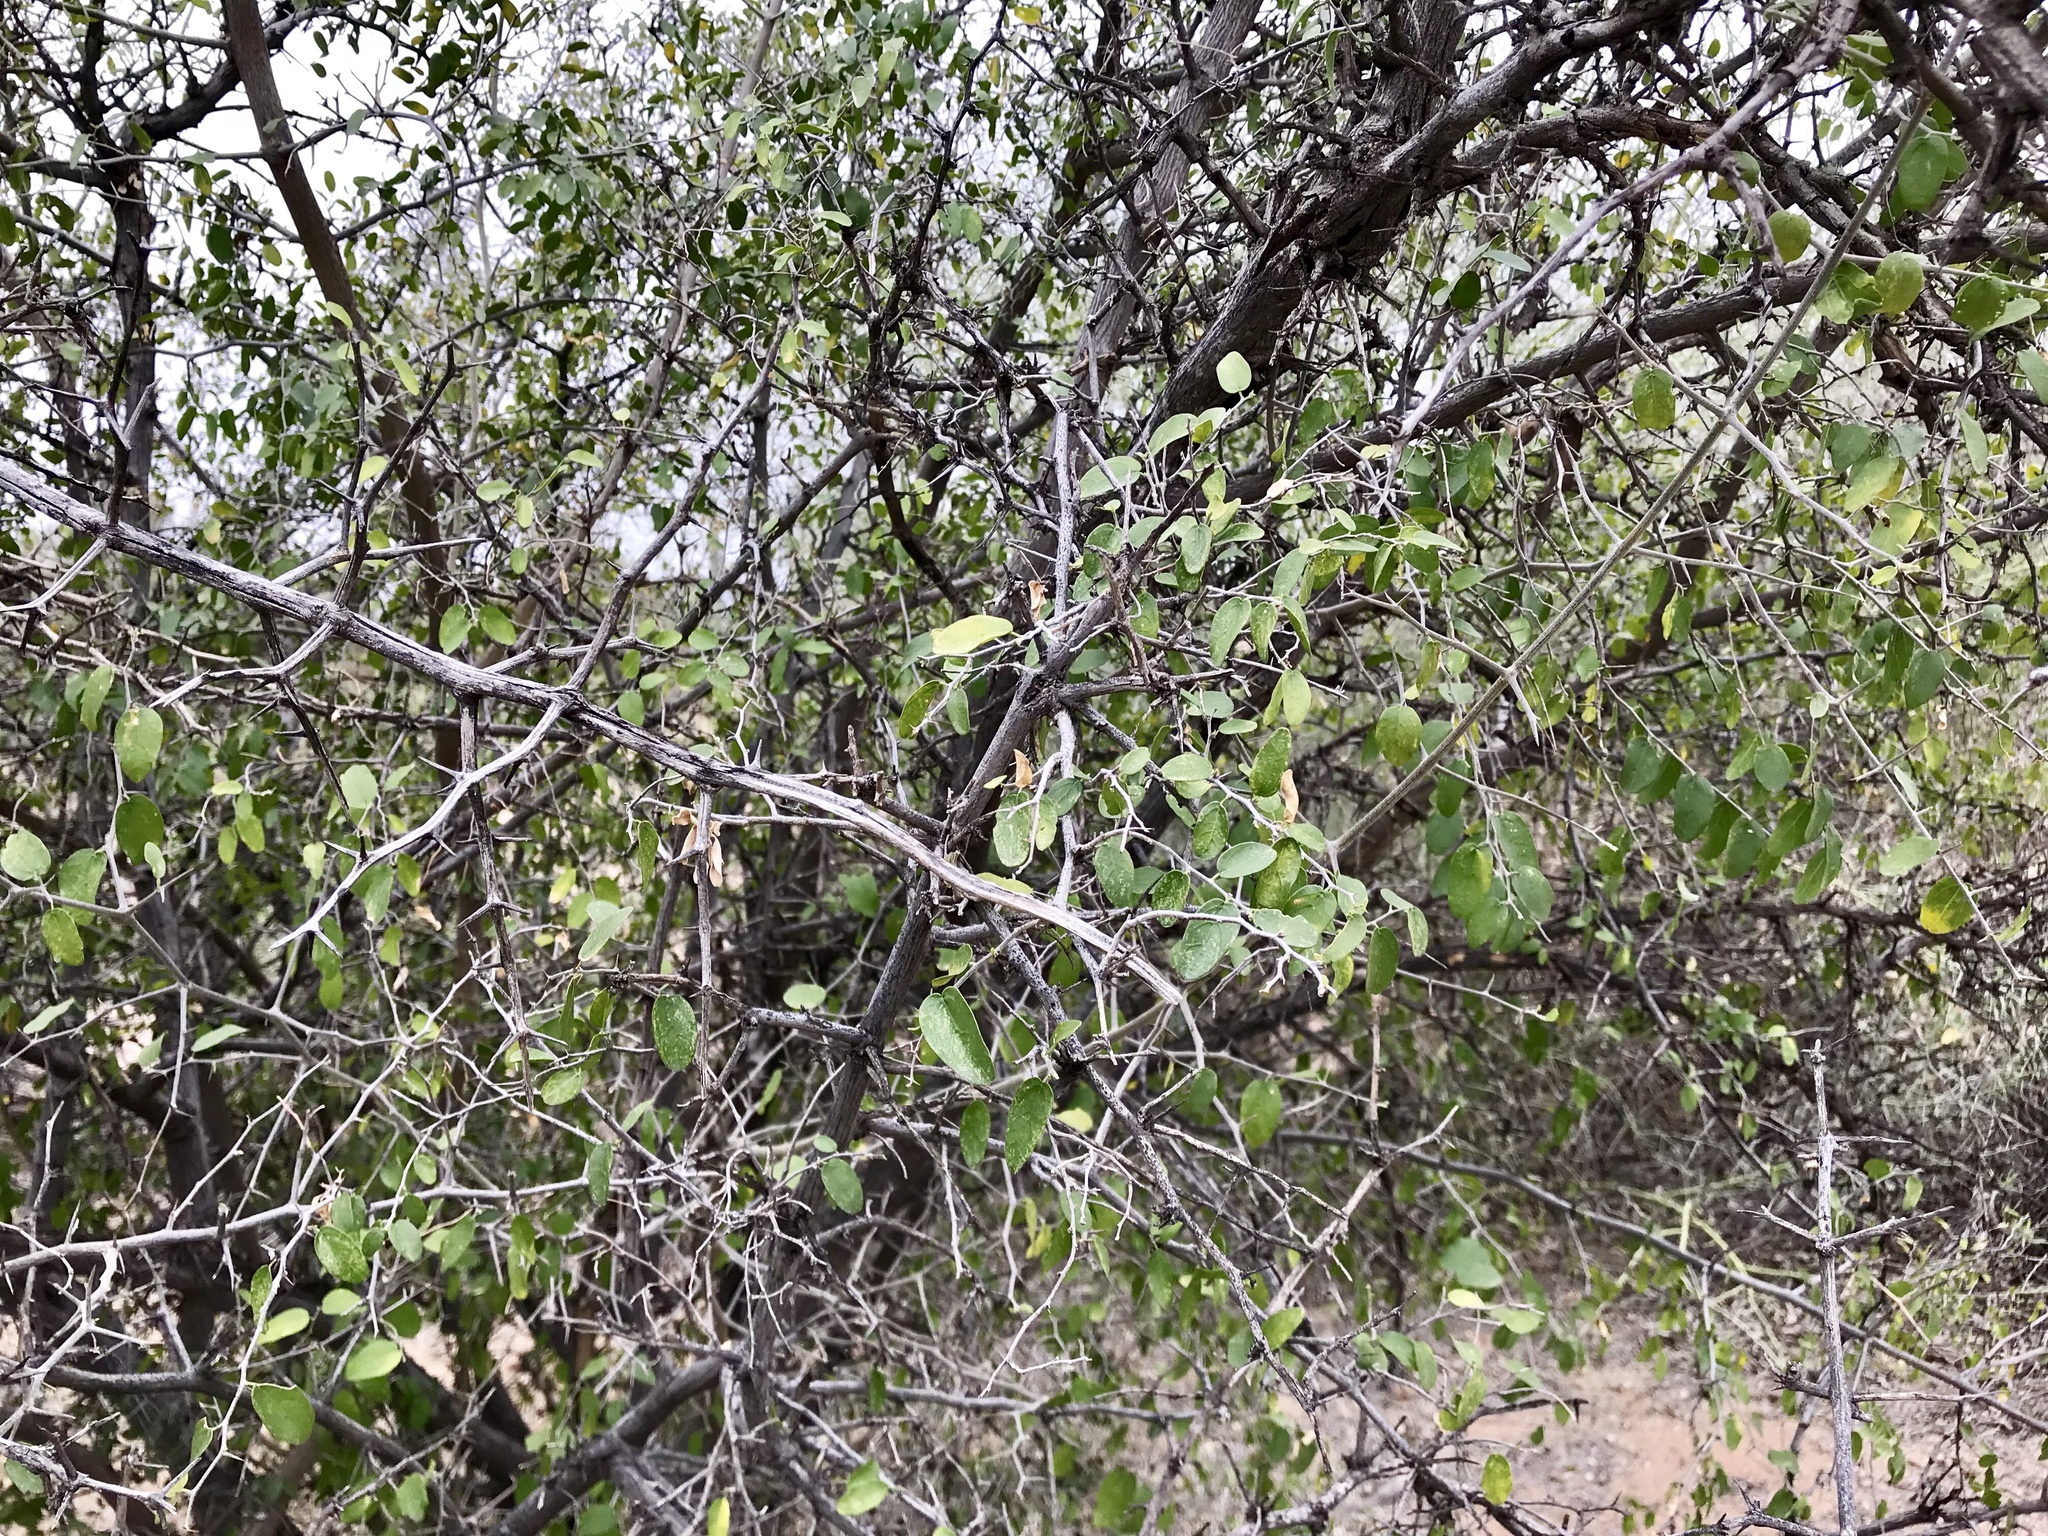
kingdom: Plantae
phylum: Tracheophyta
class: Magnoliopsida
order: Rosales
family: Cannabaceae
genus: Celtis
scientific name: Celtis pallida
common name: Desert hackberry
